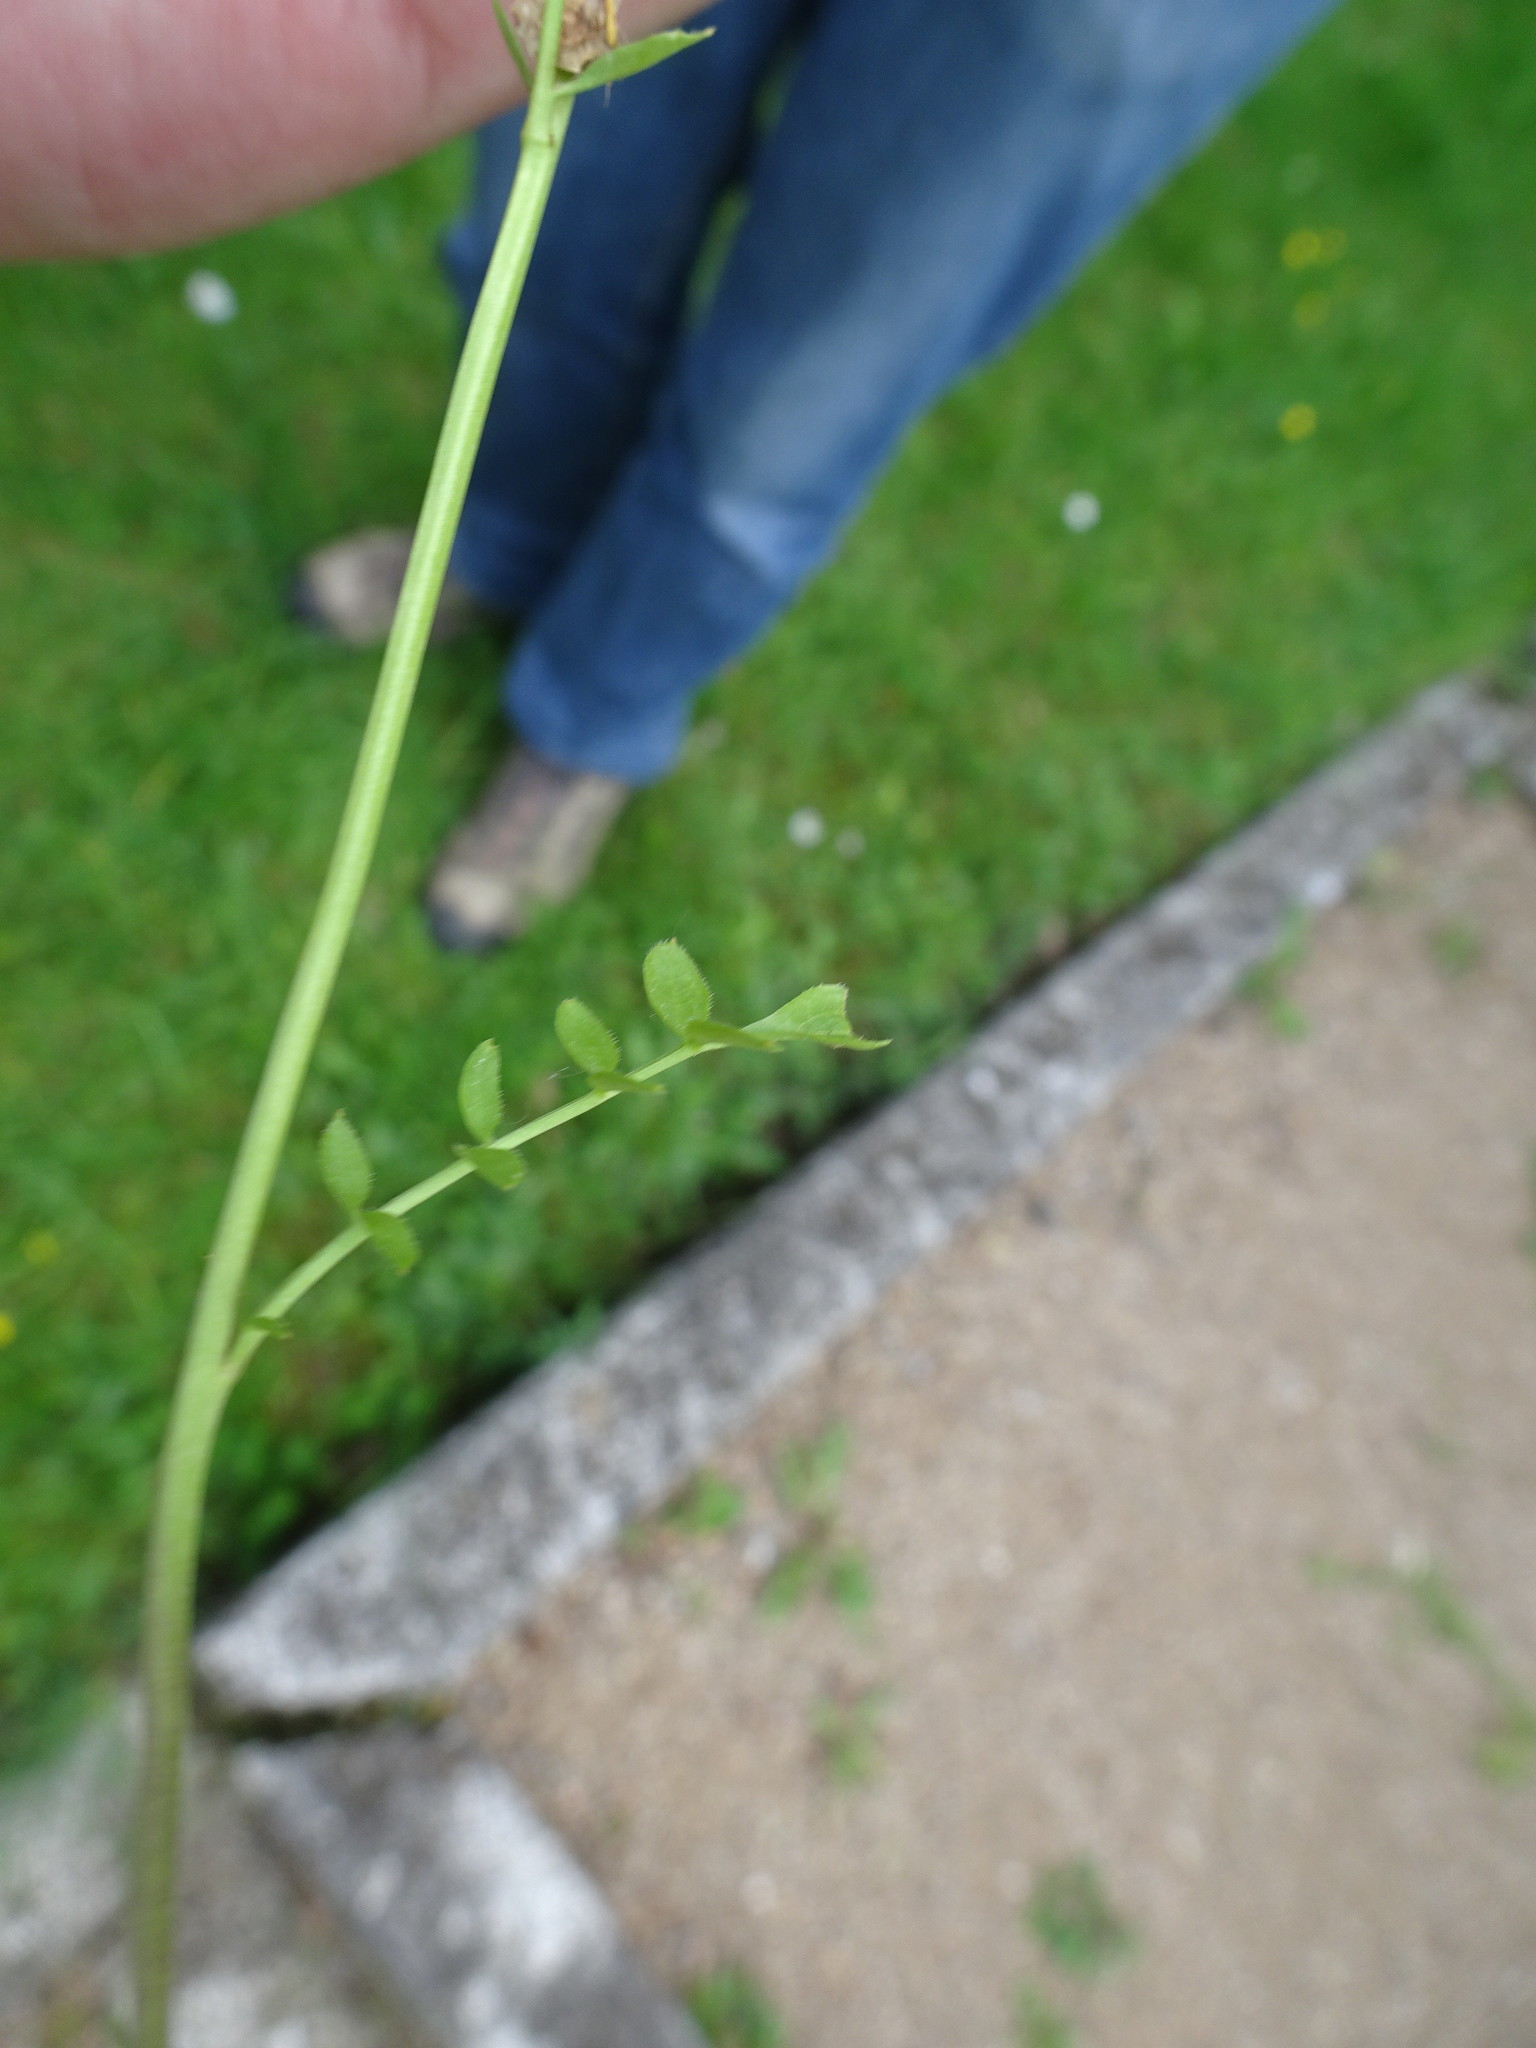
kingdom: Plantae
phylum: Tracheophyta
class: Magnoliopsida
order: Brassicales
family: Brassicaceae
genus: Cardamine
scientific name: Cardamine pratensis
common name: Cuckoo flower
